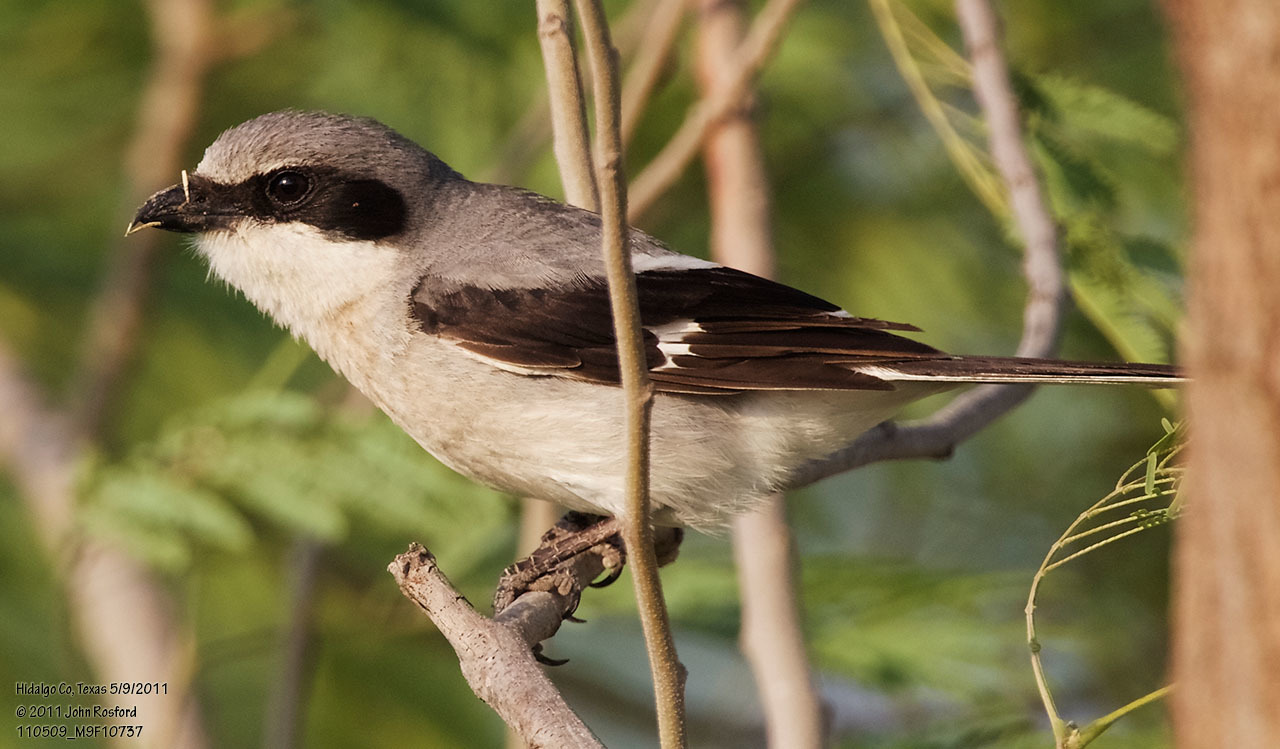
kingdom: Animalia
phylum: Chordata
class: Aves
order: Passeriformes
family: Laniidae
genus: Lanius
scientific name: Lanius ludovicianus
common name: Loggerhead shrike
